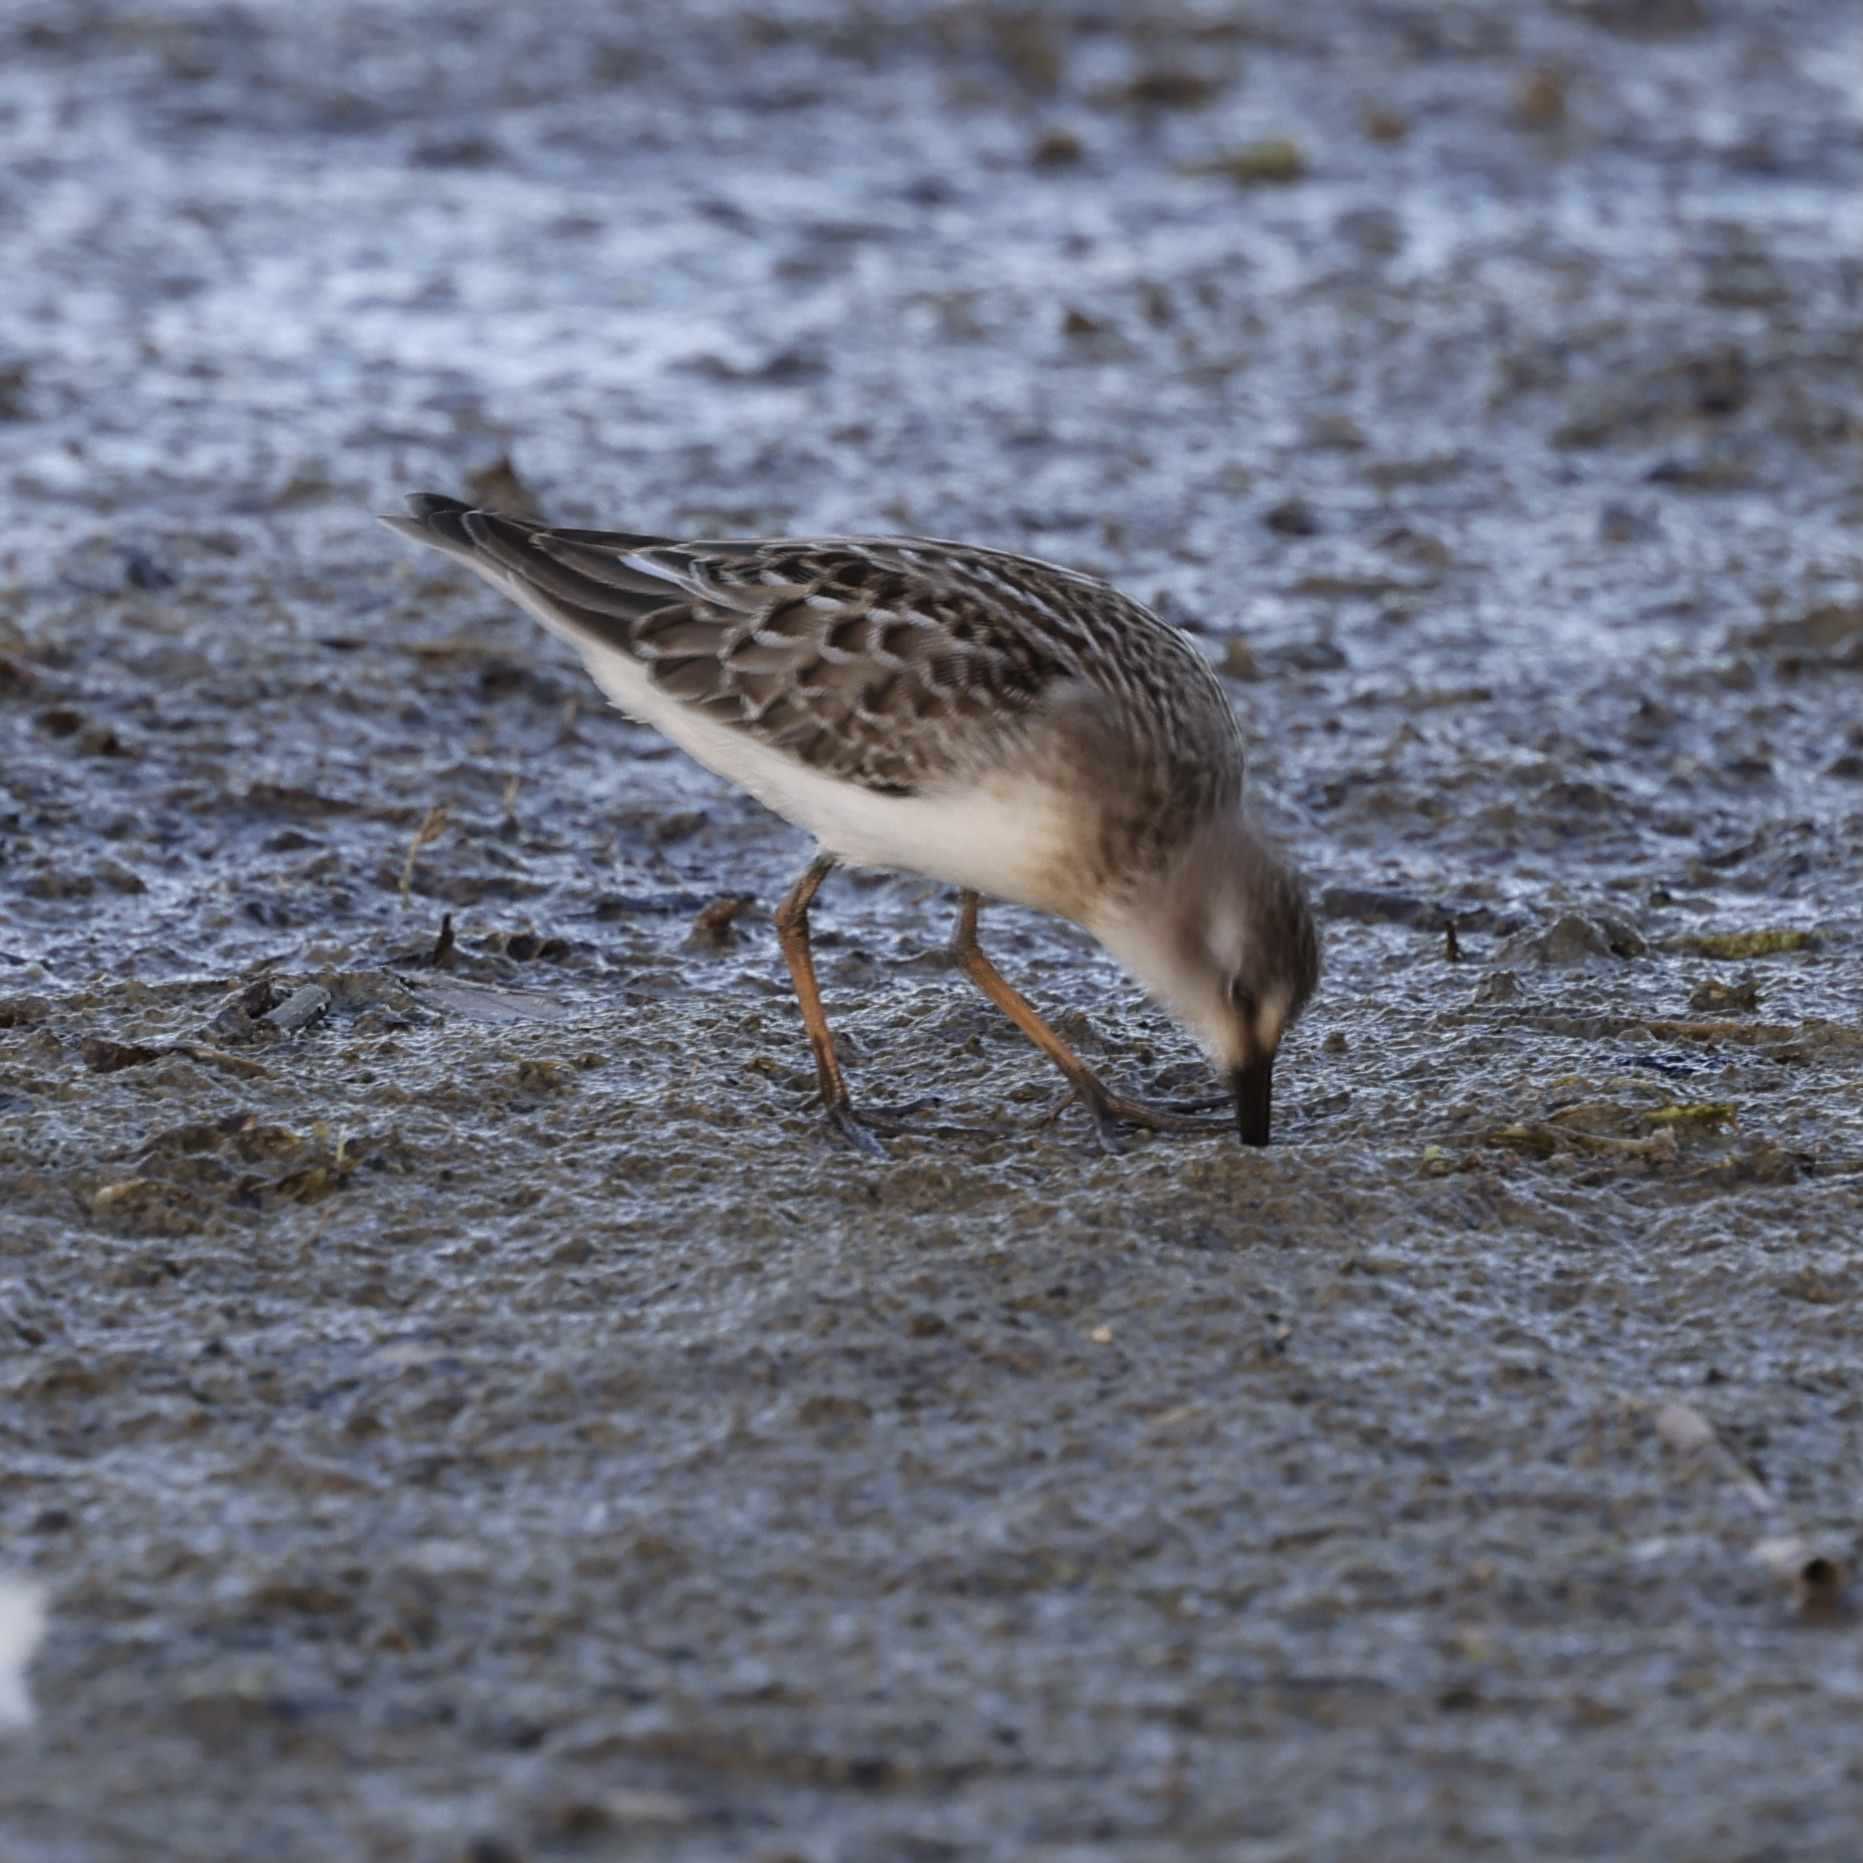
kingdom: Animalia
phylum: Chordata
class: Aves
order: Charadriiformes
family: Scolopacidae
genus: Calidris
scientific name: Calidris minutilla
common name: Least sandpiper
